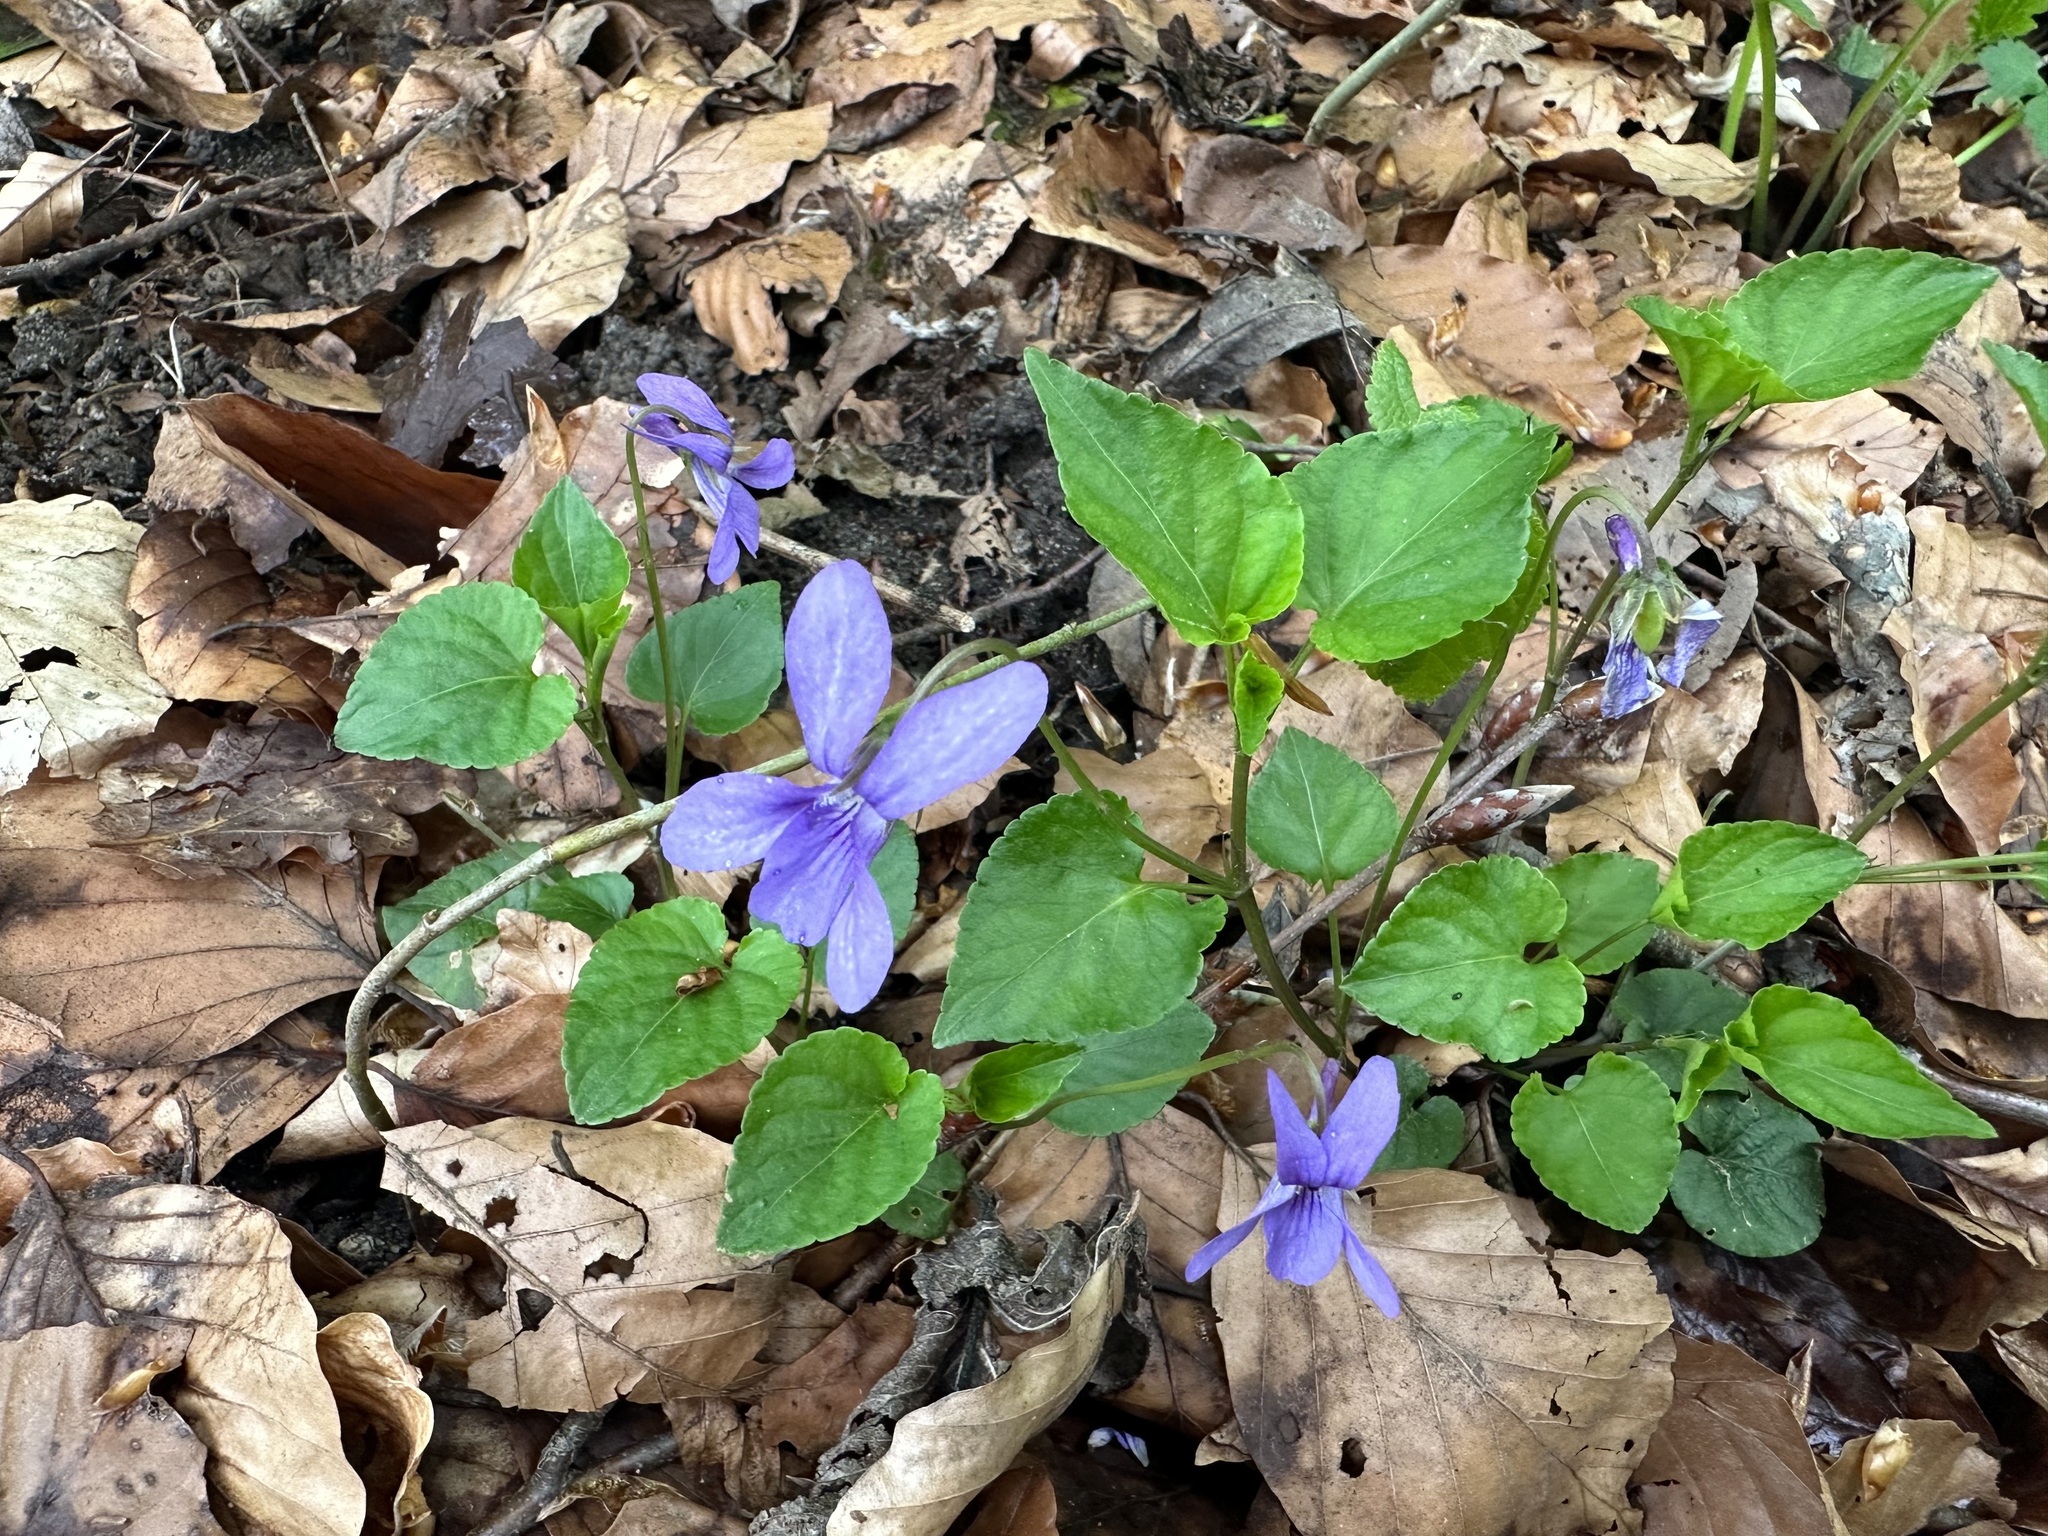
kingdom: Plantae
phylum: Tracheophyta
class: Magnoliopsida
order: Malpighiales
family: Violaceae
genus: Viola
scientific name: Viola reichenbachiana
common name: Early dog-violet
